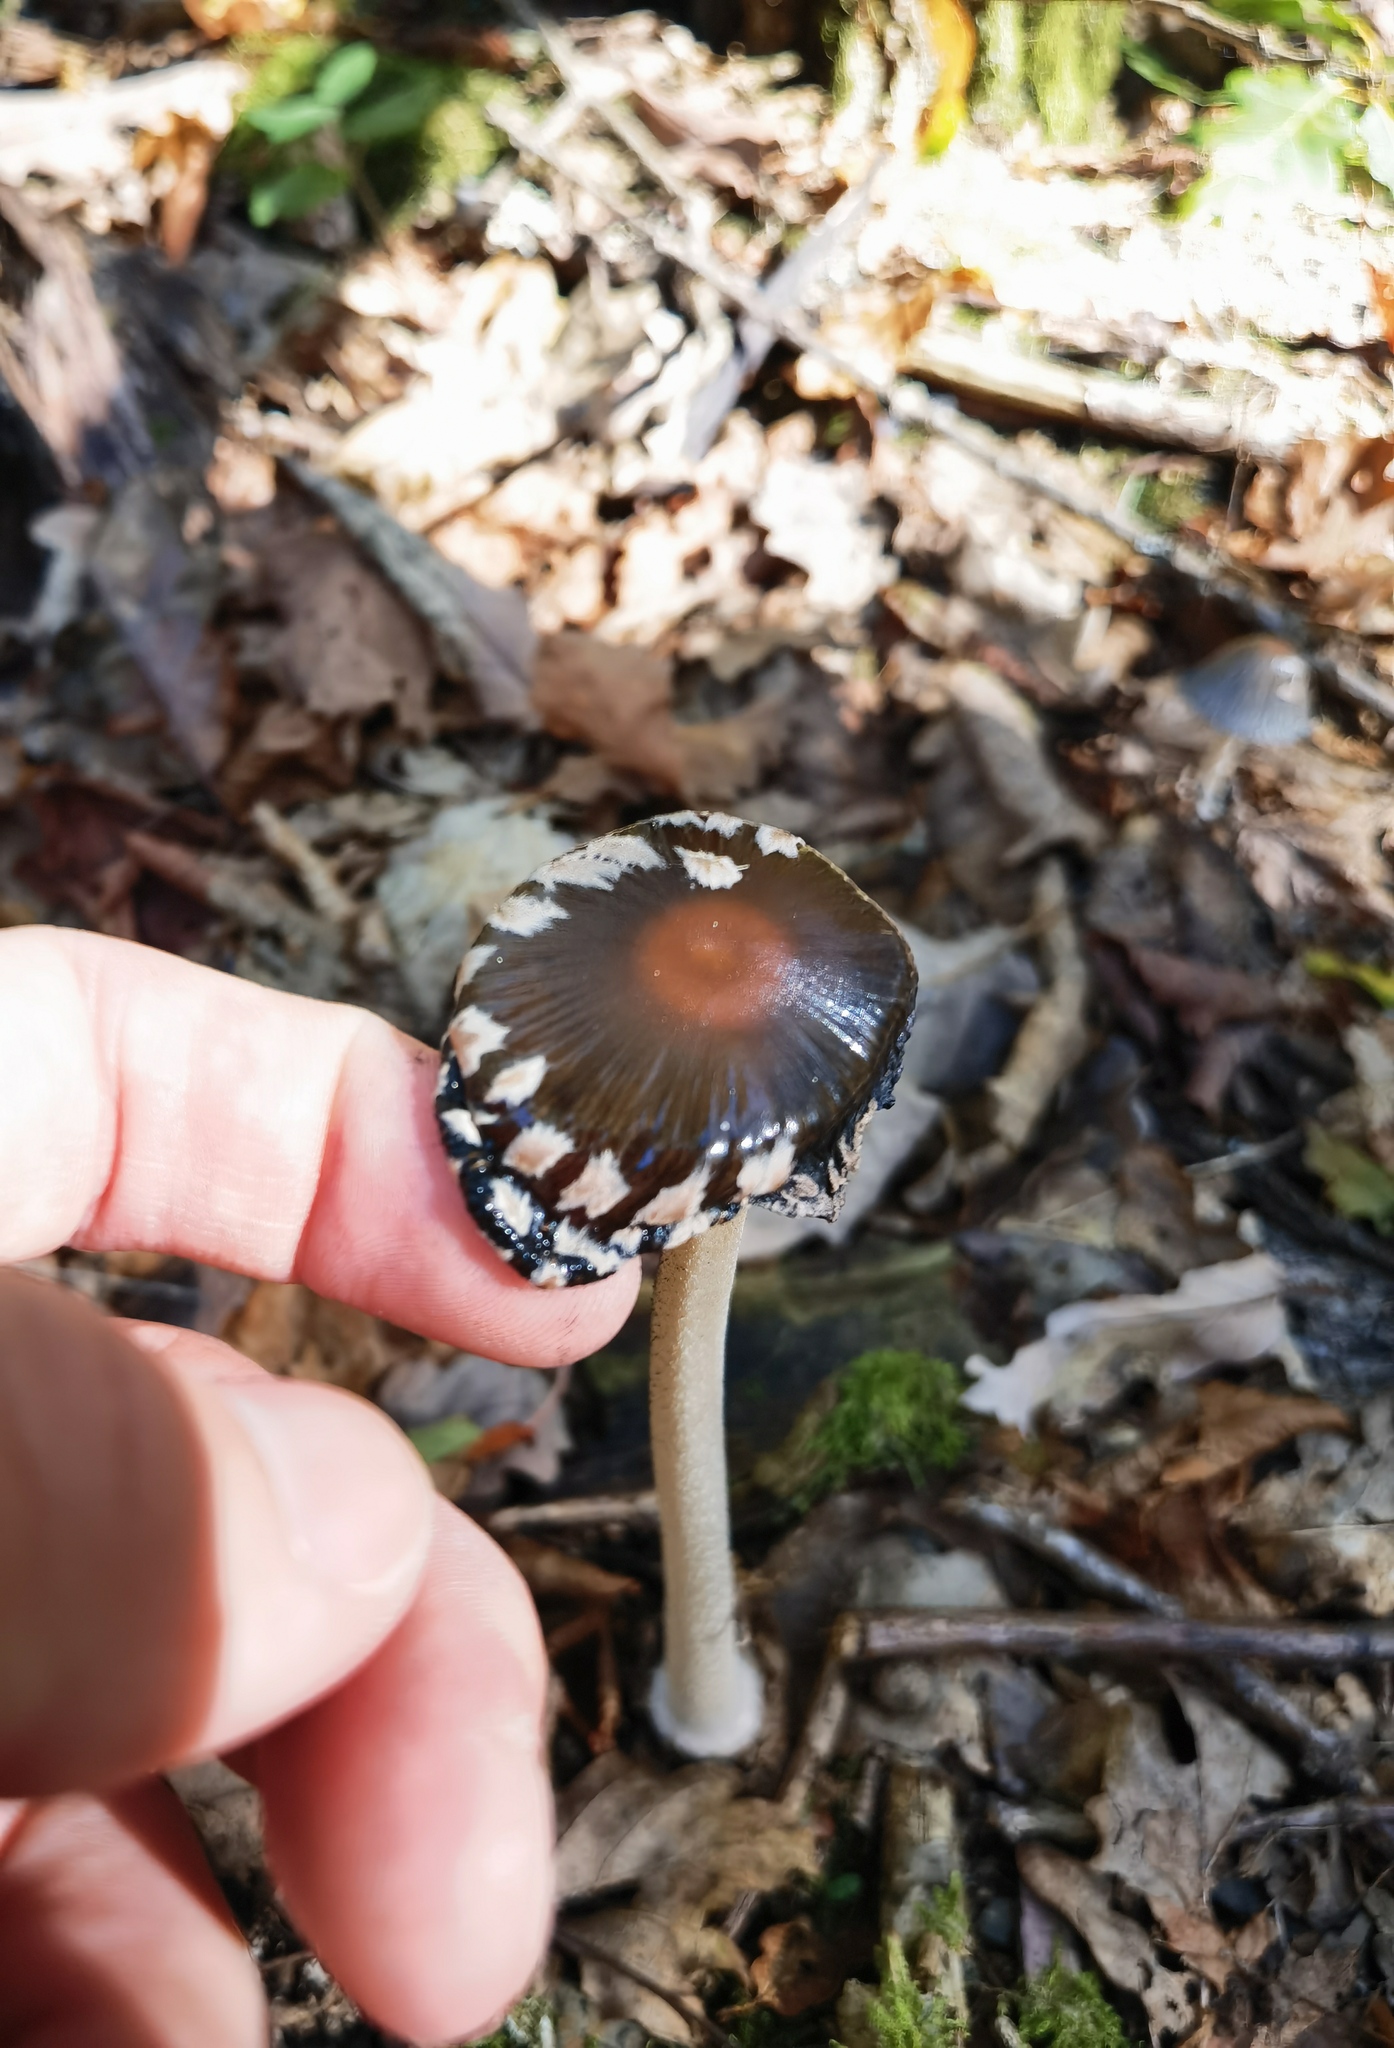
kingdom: Fungi
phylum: Basidiomycota
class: Agaricomycetes
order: Agaricales
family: Psathyrellaceae
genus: Coprinopsis
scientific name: Coprinopsis picacea
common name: Magpie inkcap
